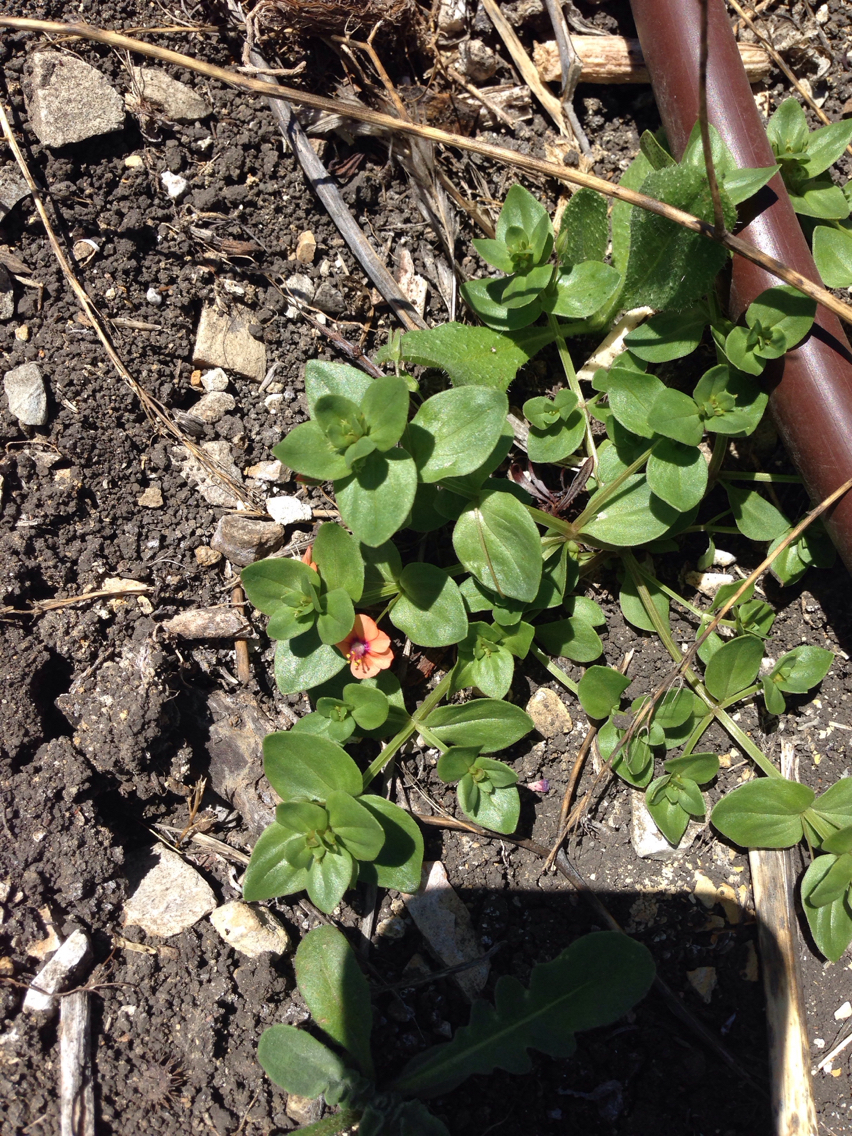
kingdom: Plantae
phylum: Tracheophyta
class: Magnoliopsida
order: Ericales
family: Primulaceae
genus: Lysimachia
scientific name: Lysimachia arvensis
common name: Scarlet pimpernel
